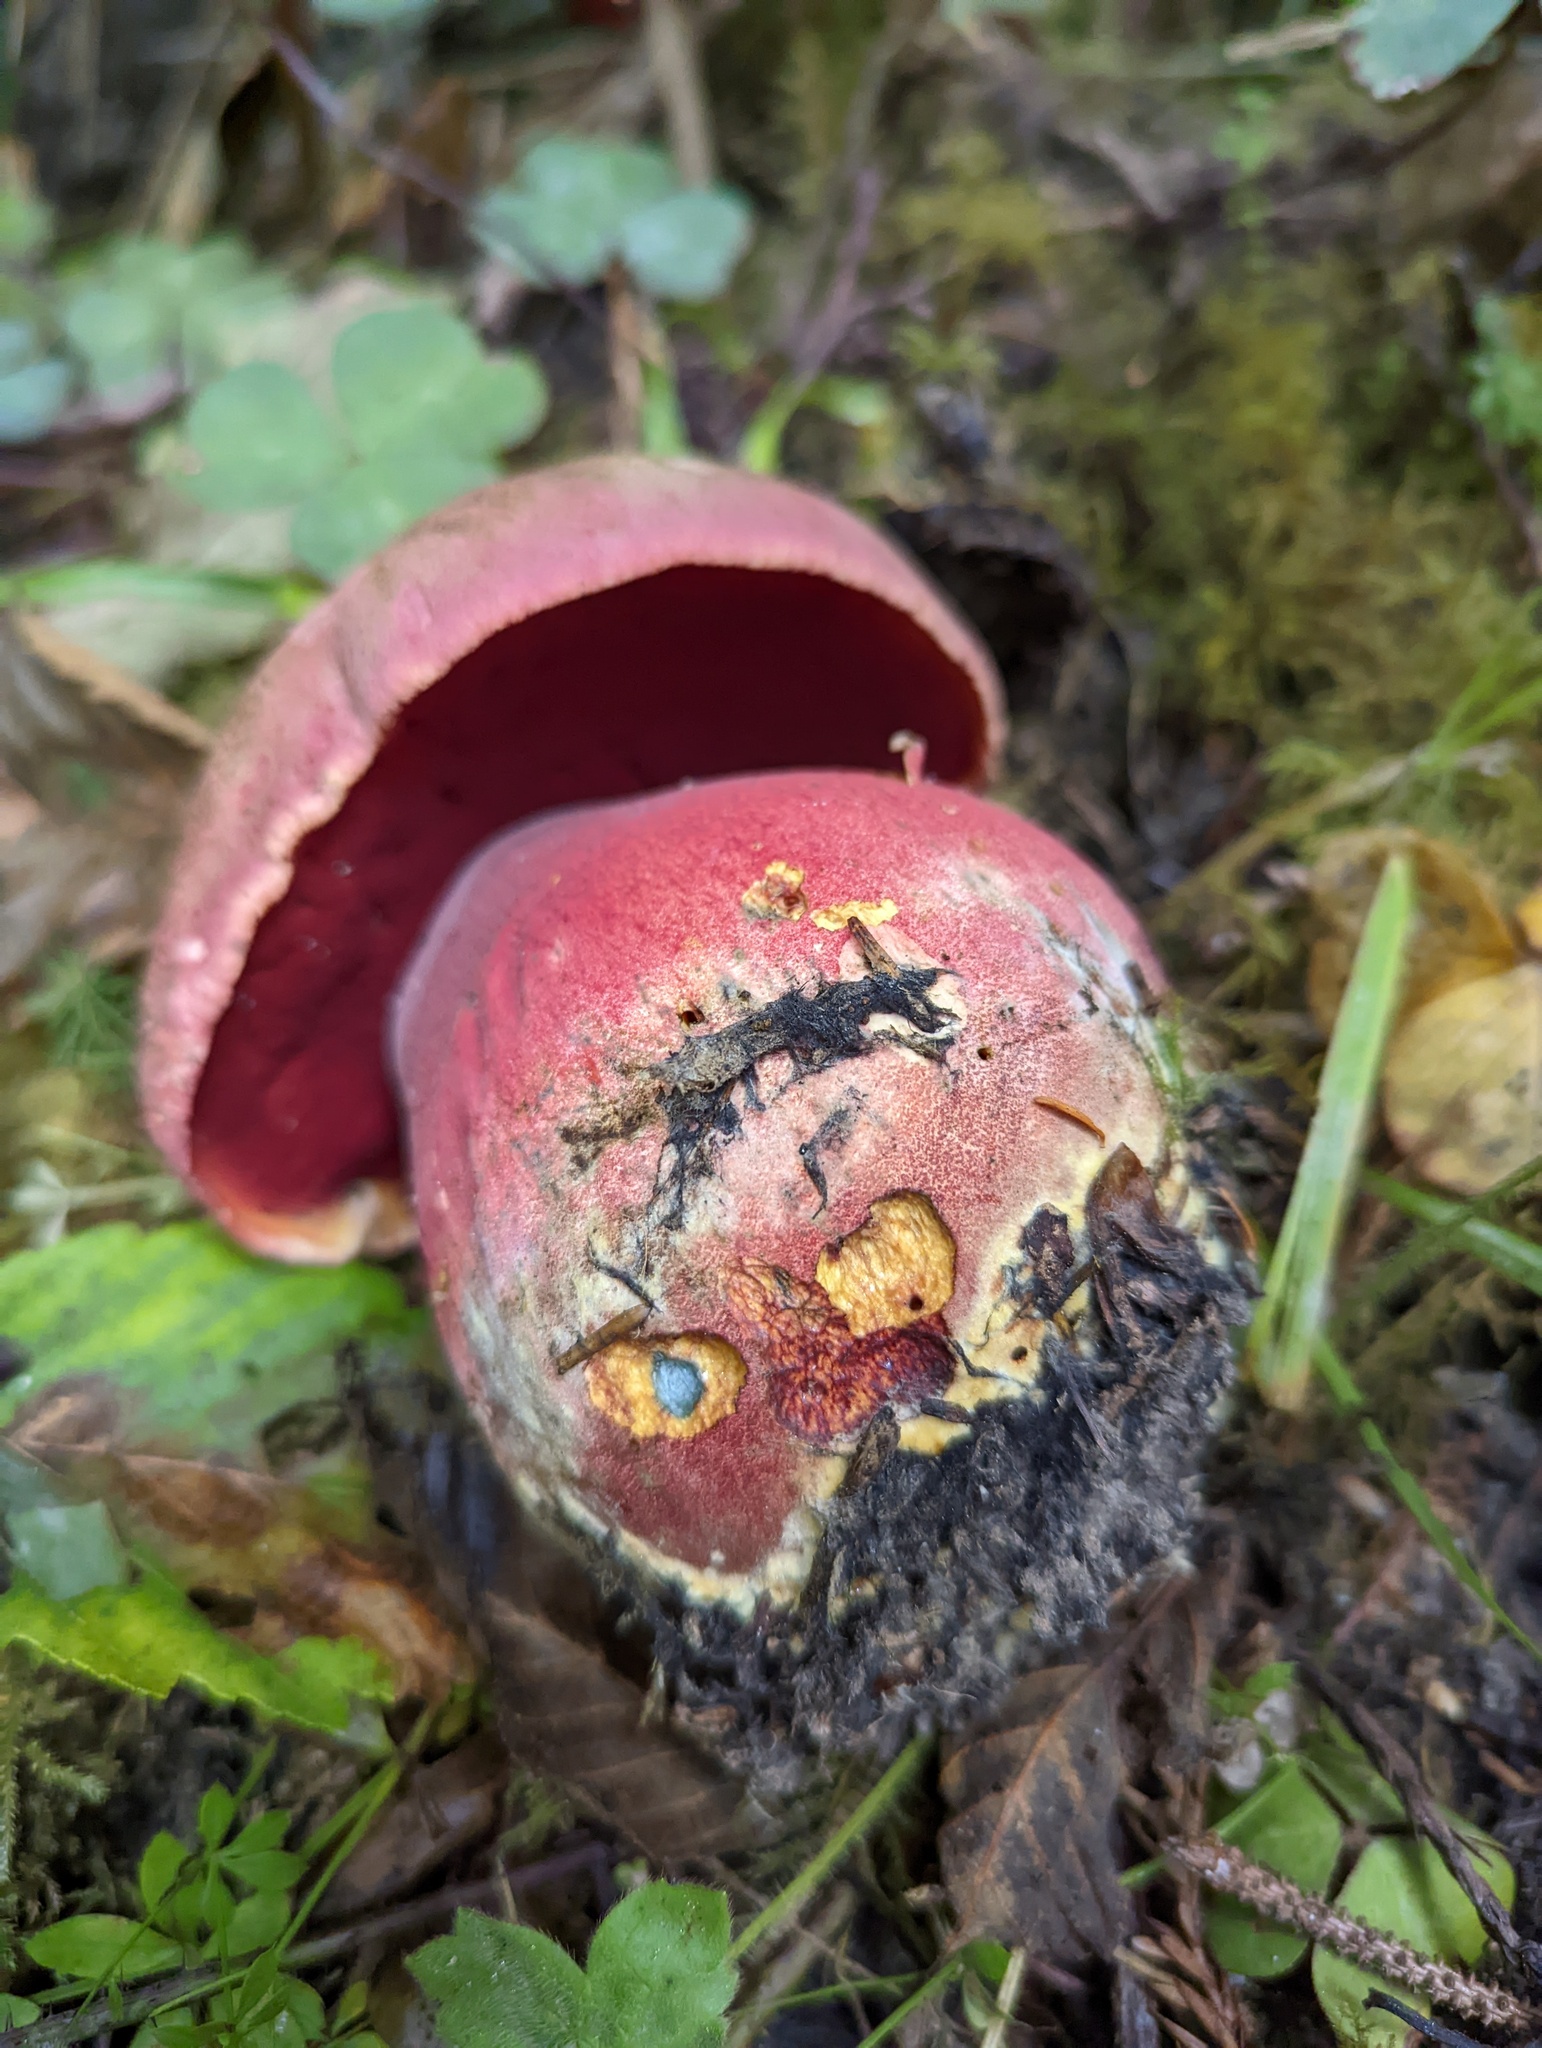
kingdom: Fungi
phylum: Basidiomycota
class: Agaricomycetes
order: Boletales
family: Boletaceae
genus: Rubroboletus
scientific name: Rubroboletus pulcherrimus
